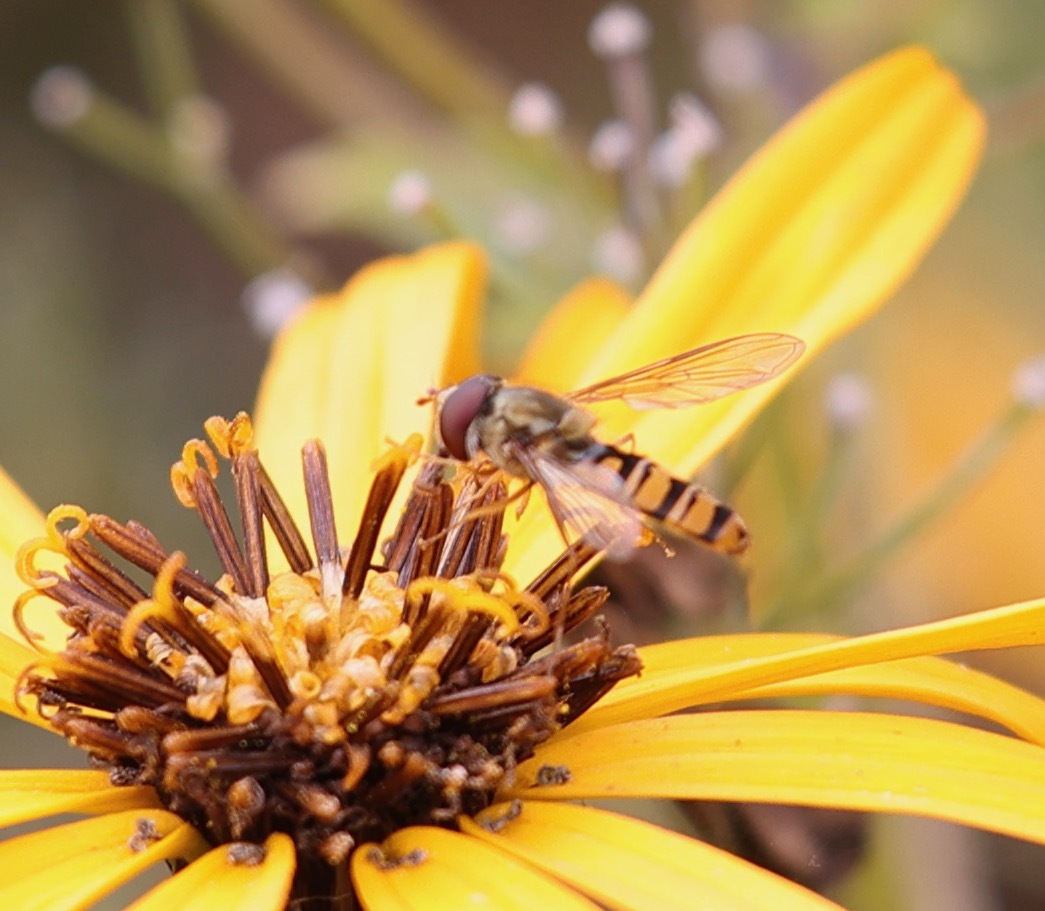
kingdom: Animalia
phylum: Arthropoda
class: Insecta
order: Diptera
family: Syrphidae
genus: Episyrphus
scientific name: Episyrphus balteatus
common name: Marmalade hoverfly
